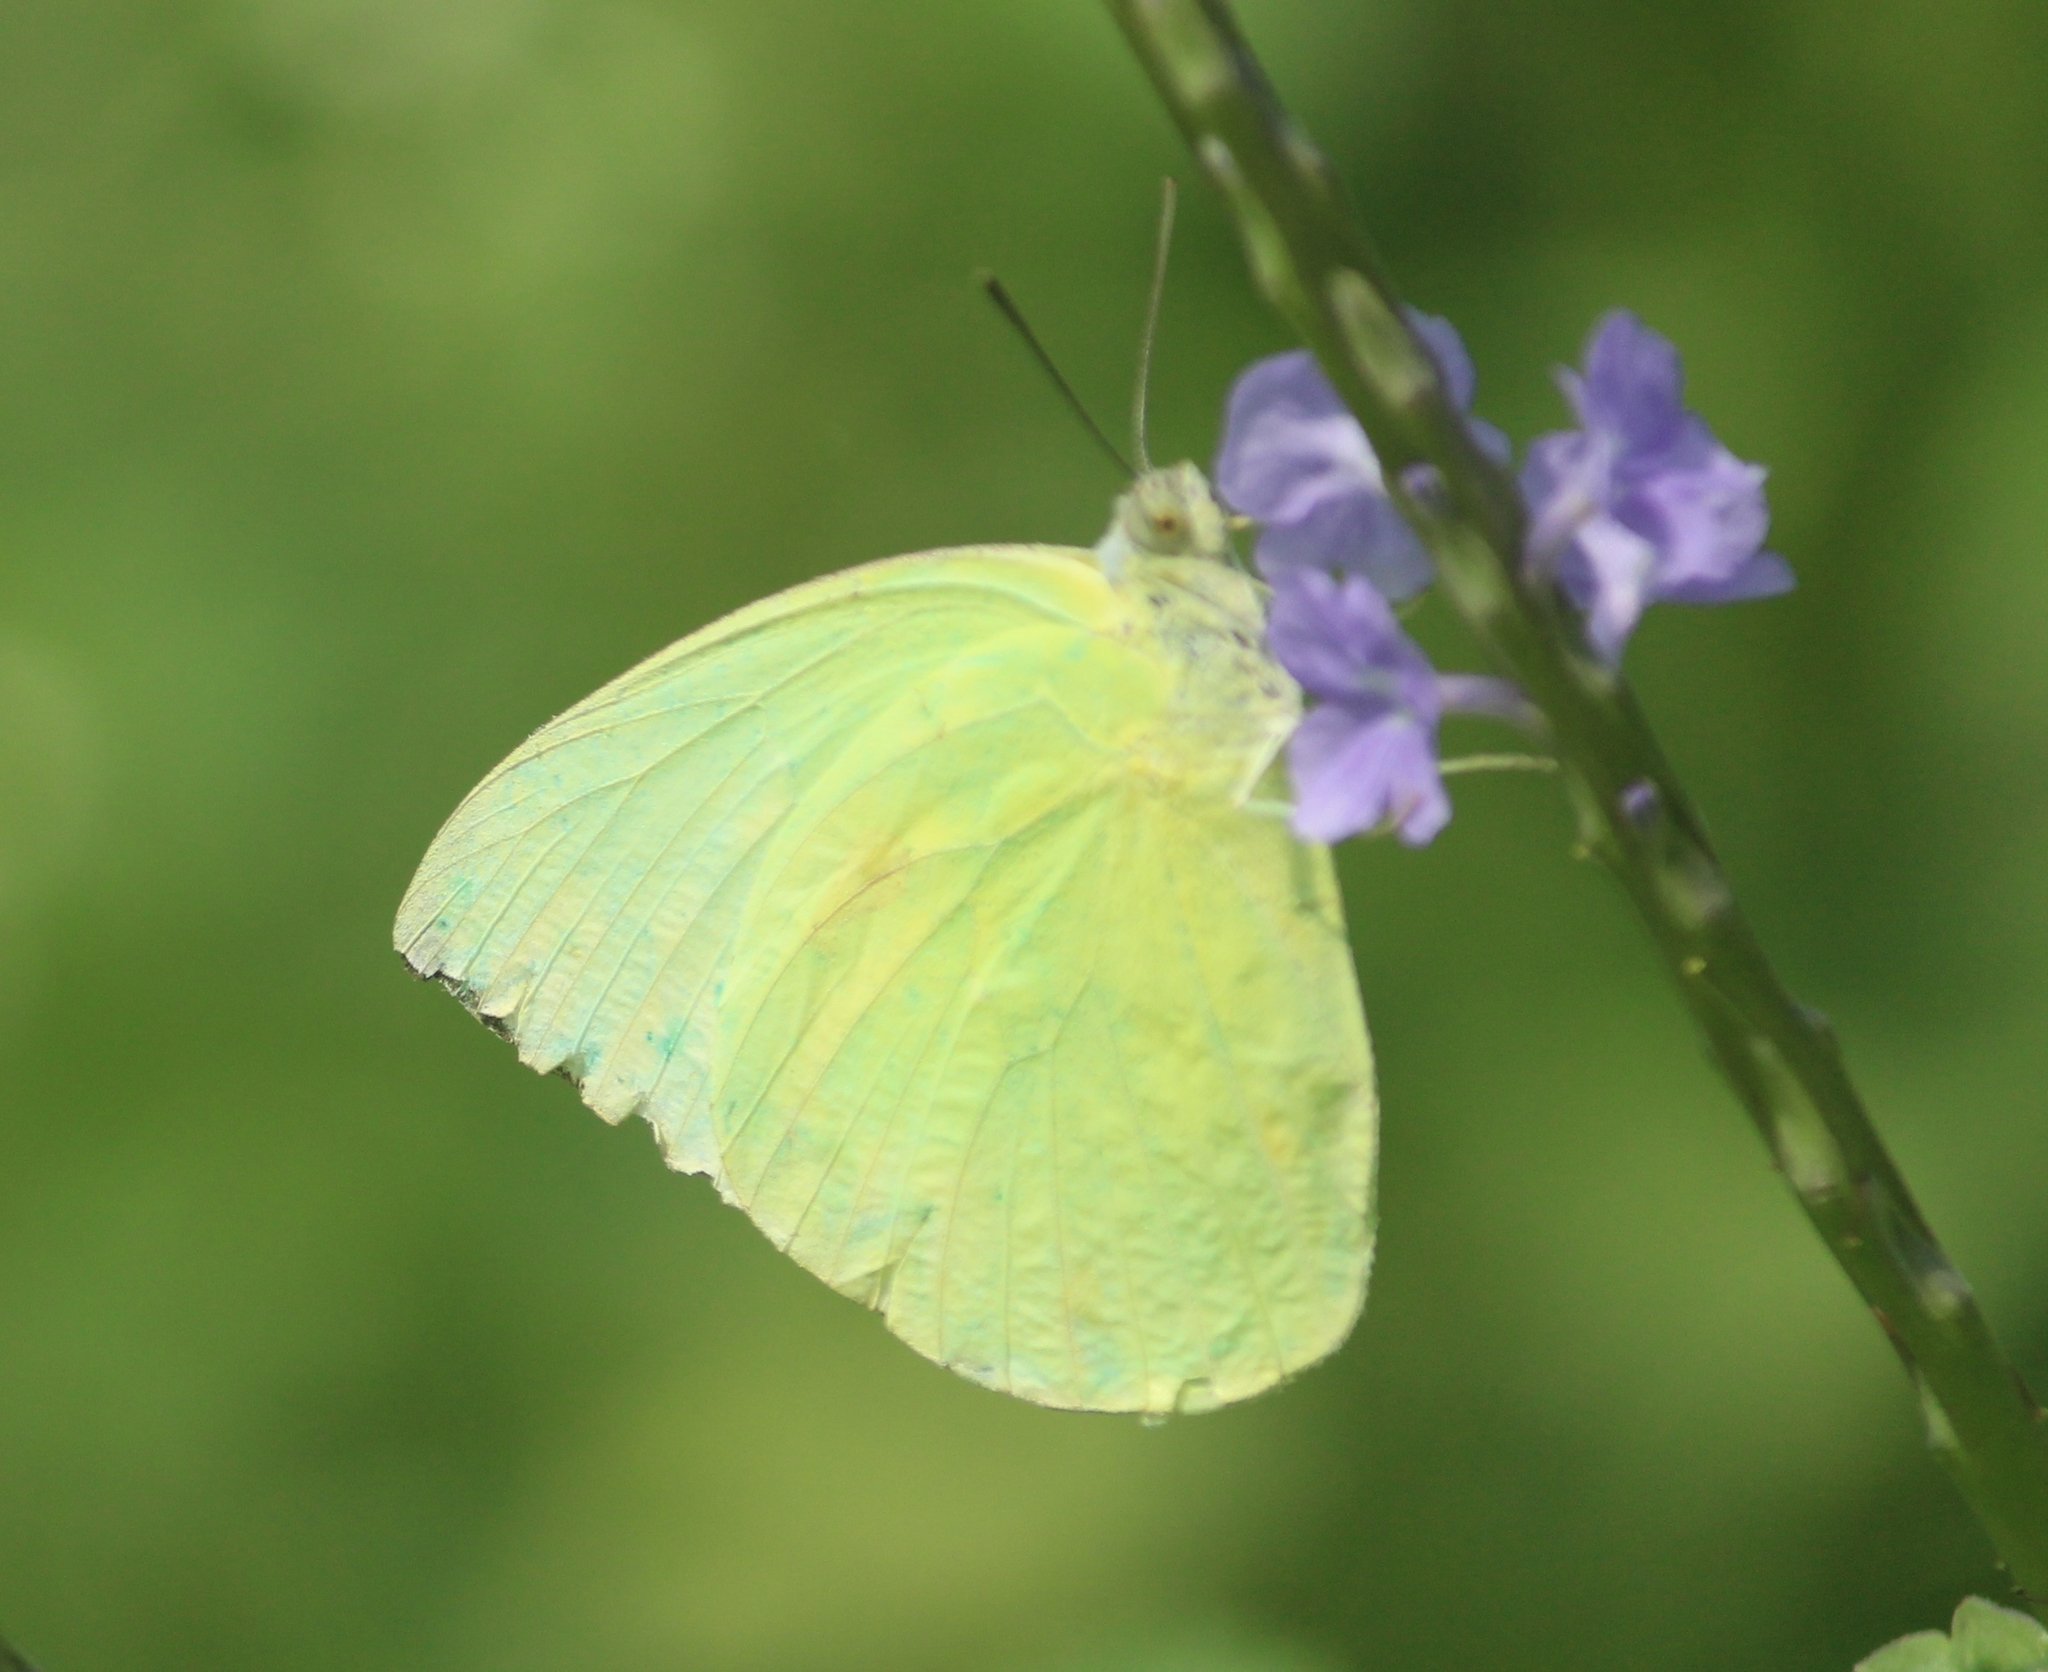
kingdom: Animalia
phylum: Arthropoda
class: Insecta
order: Lepidoptera
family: Pieridae
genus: Catopsilia
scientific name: Catopsilia pomona
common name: Common emigrant
